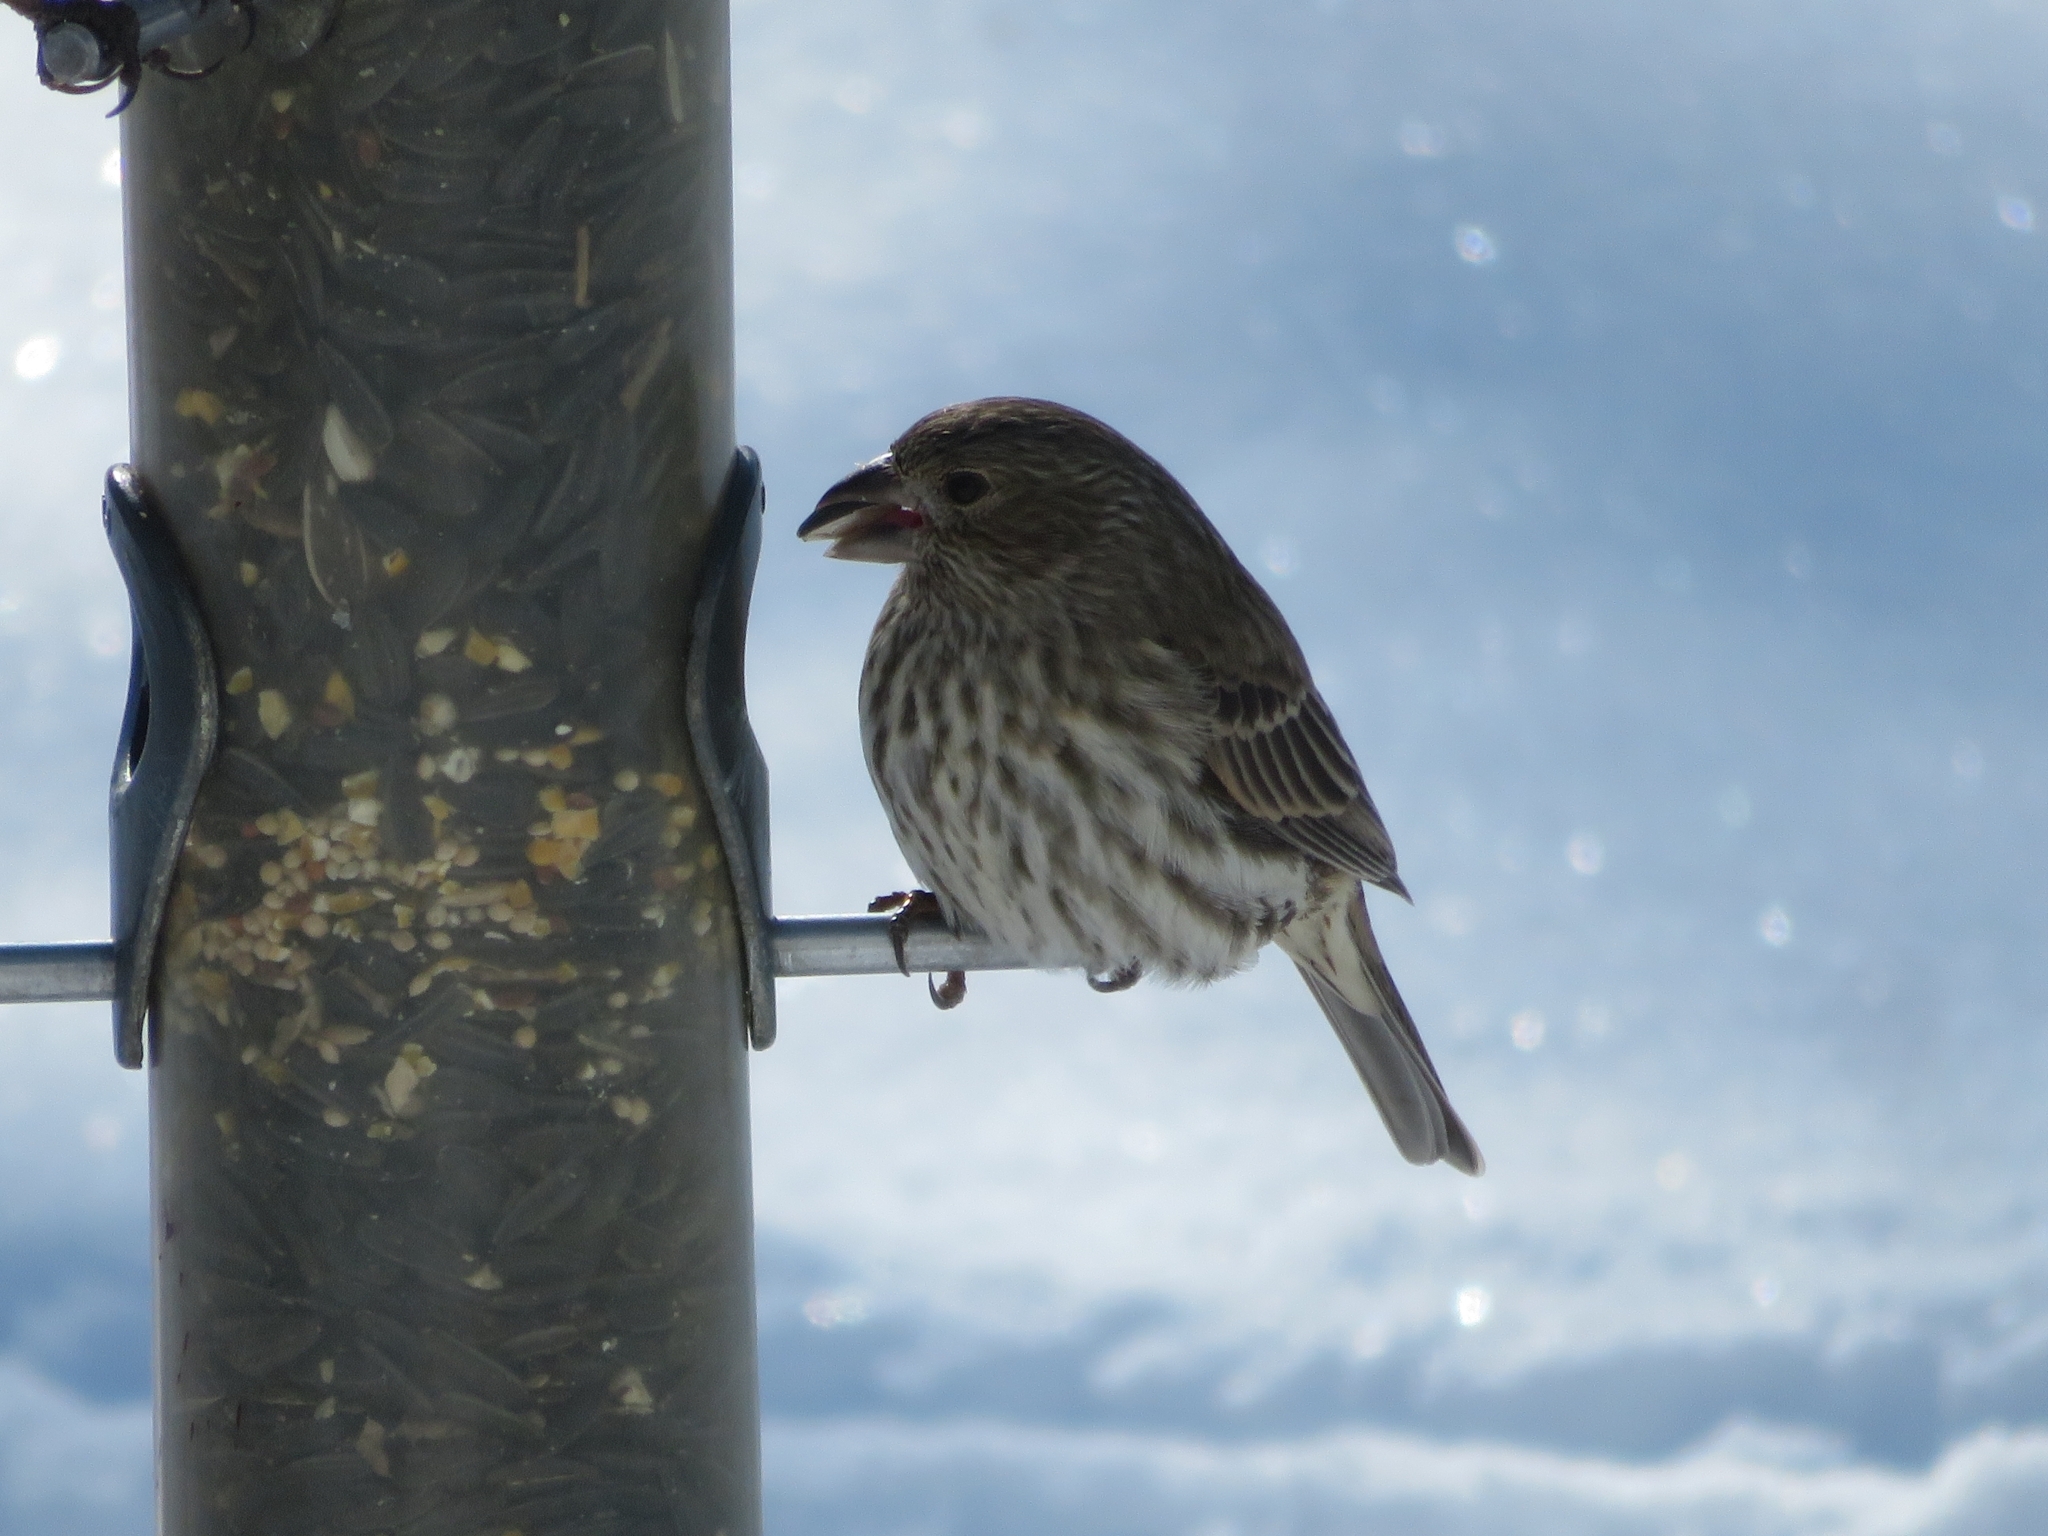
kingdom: Animalia
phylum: Chordata
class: Aves
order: Passeriformes
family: Fringillidae
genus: Haemorhous
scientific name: Haemorhous mexicanus
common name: House finch
